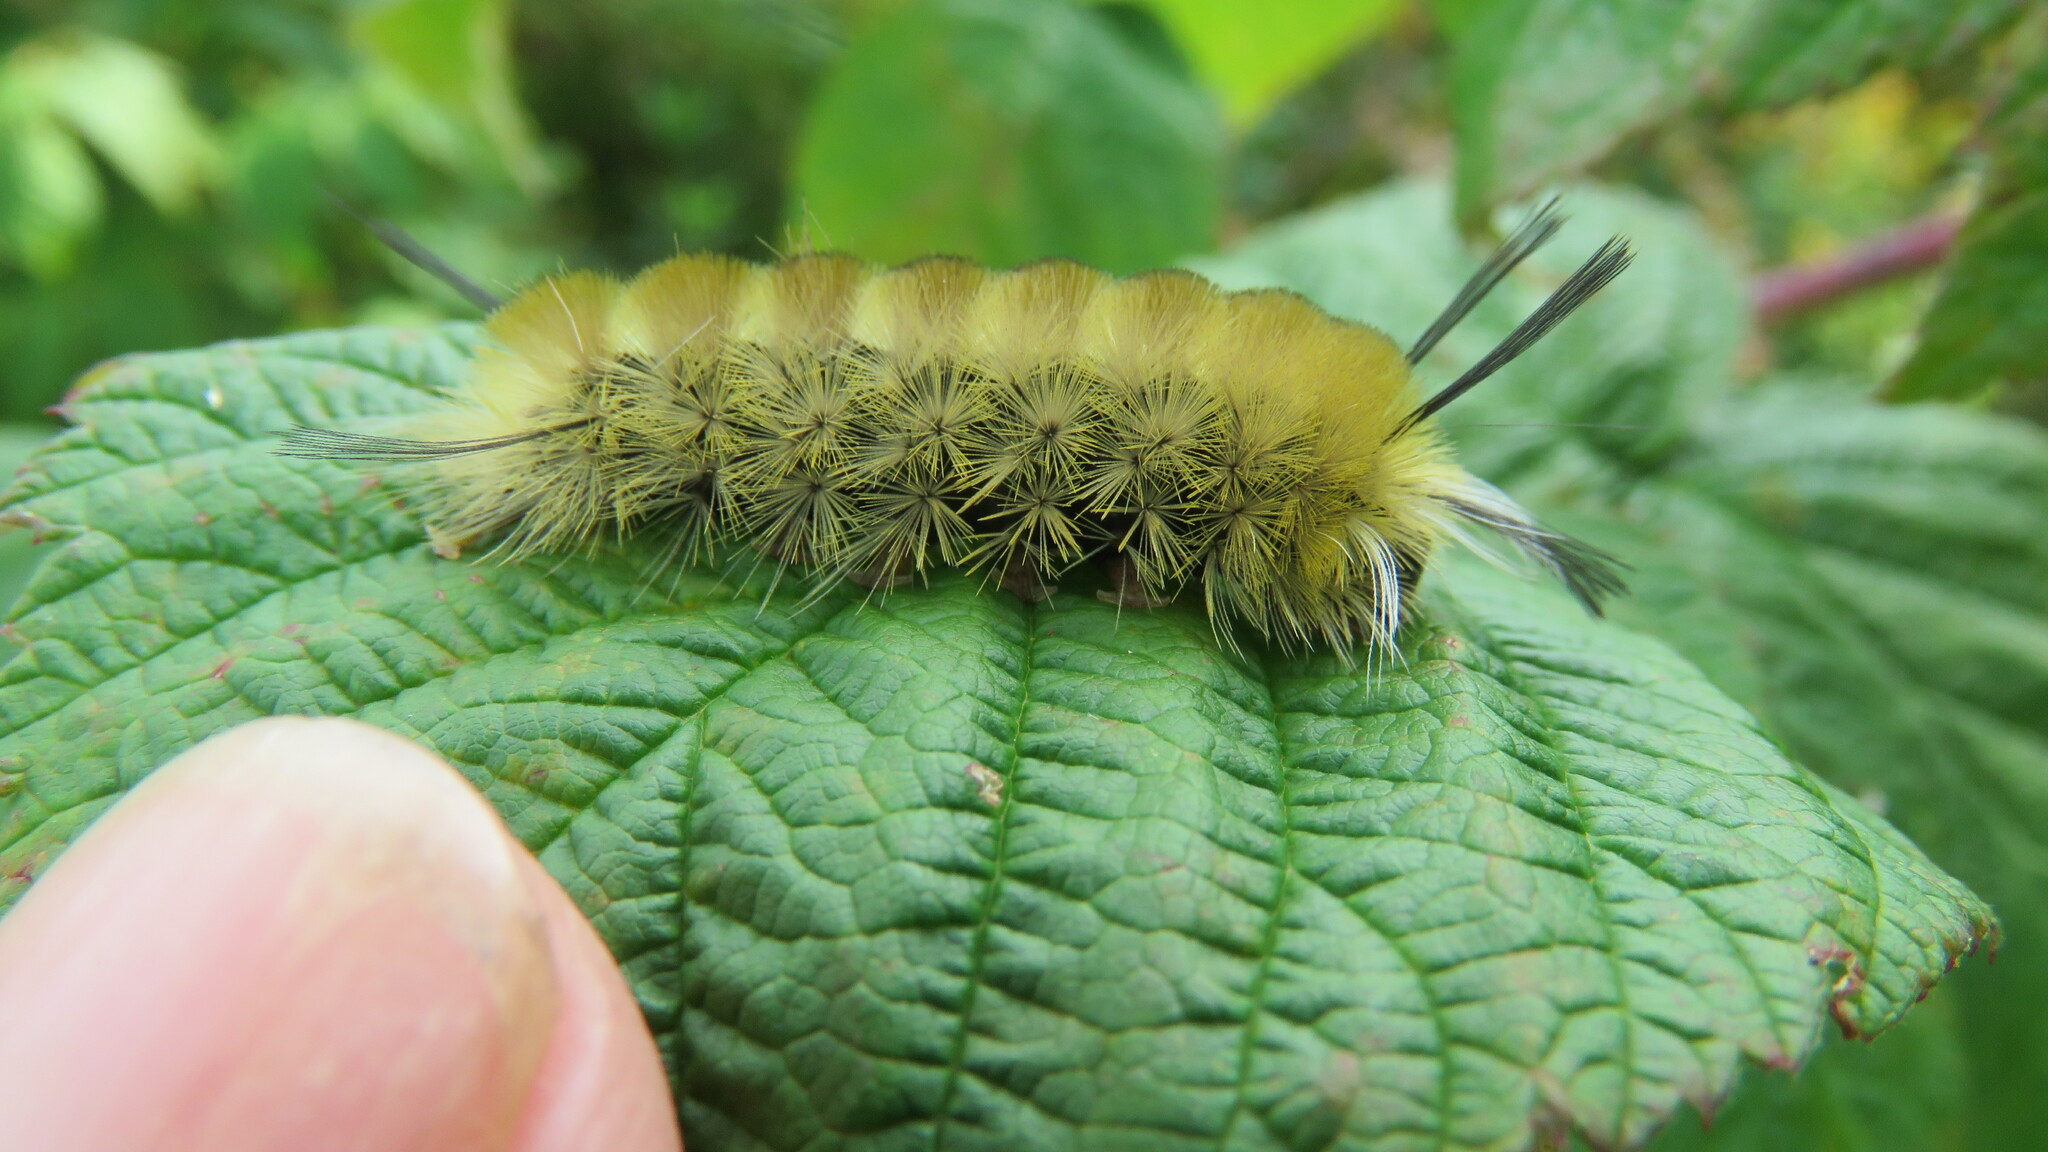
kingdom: Animalia
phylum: Arthropoda
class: Insecta
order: Lepidoptera
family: Erebidae
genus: Halysidota
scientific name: Halysidota tessellaris
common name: Banded tussock moth
